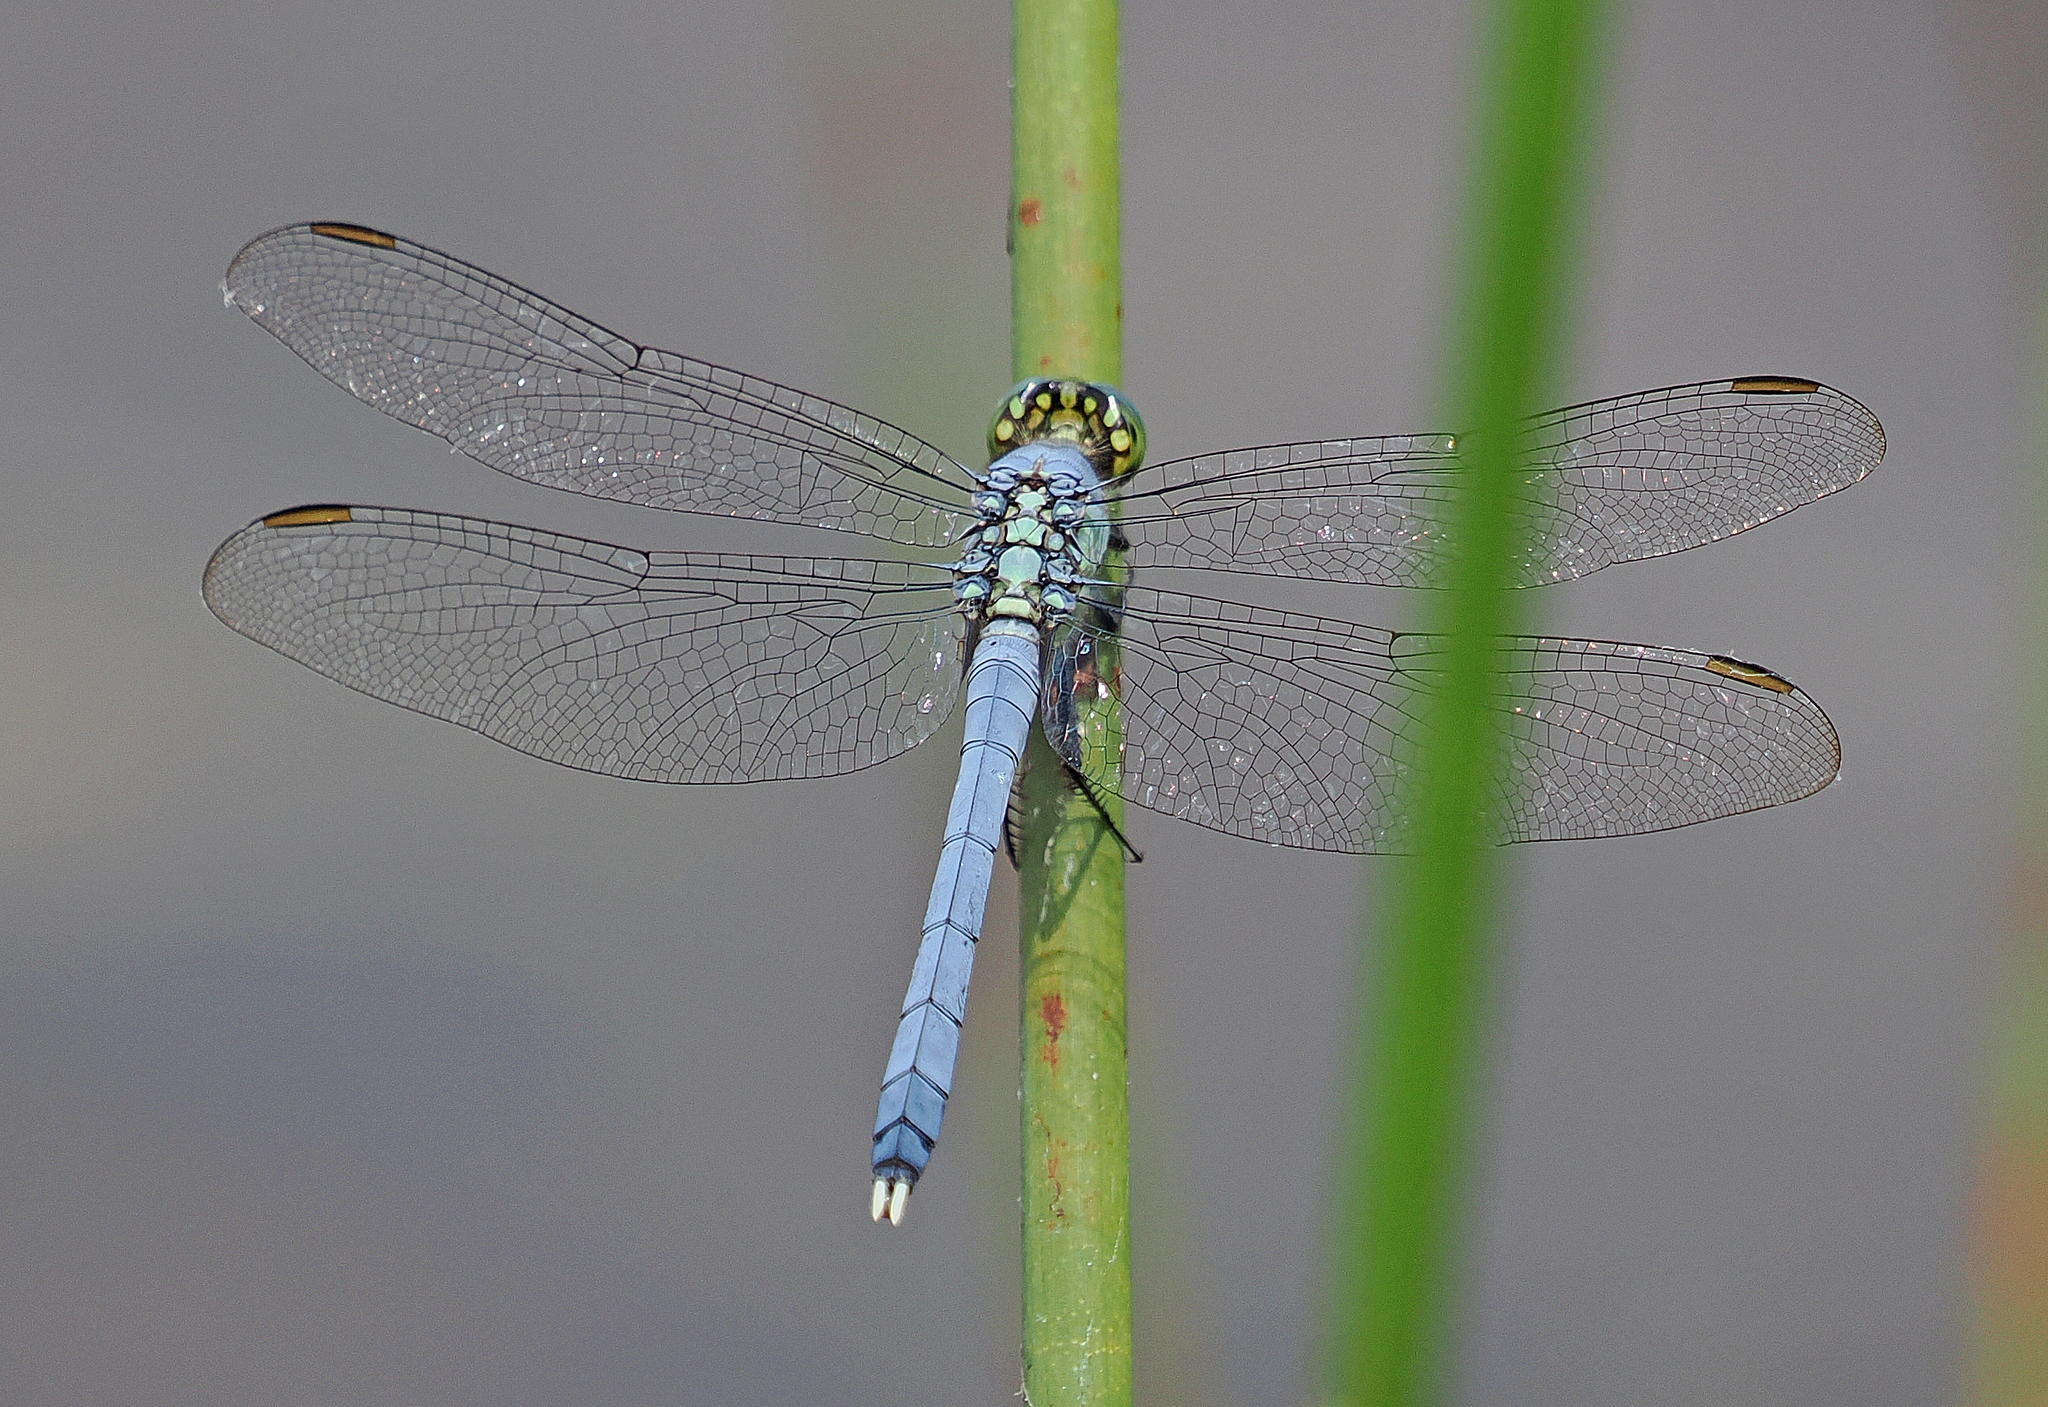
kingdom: Animalia
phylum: Arthropoda
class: Insecta
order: Odonata
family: Libellulidae
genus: Erythemis
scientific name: Erythemis simplicicollis
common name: Eastern pondhawk
